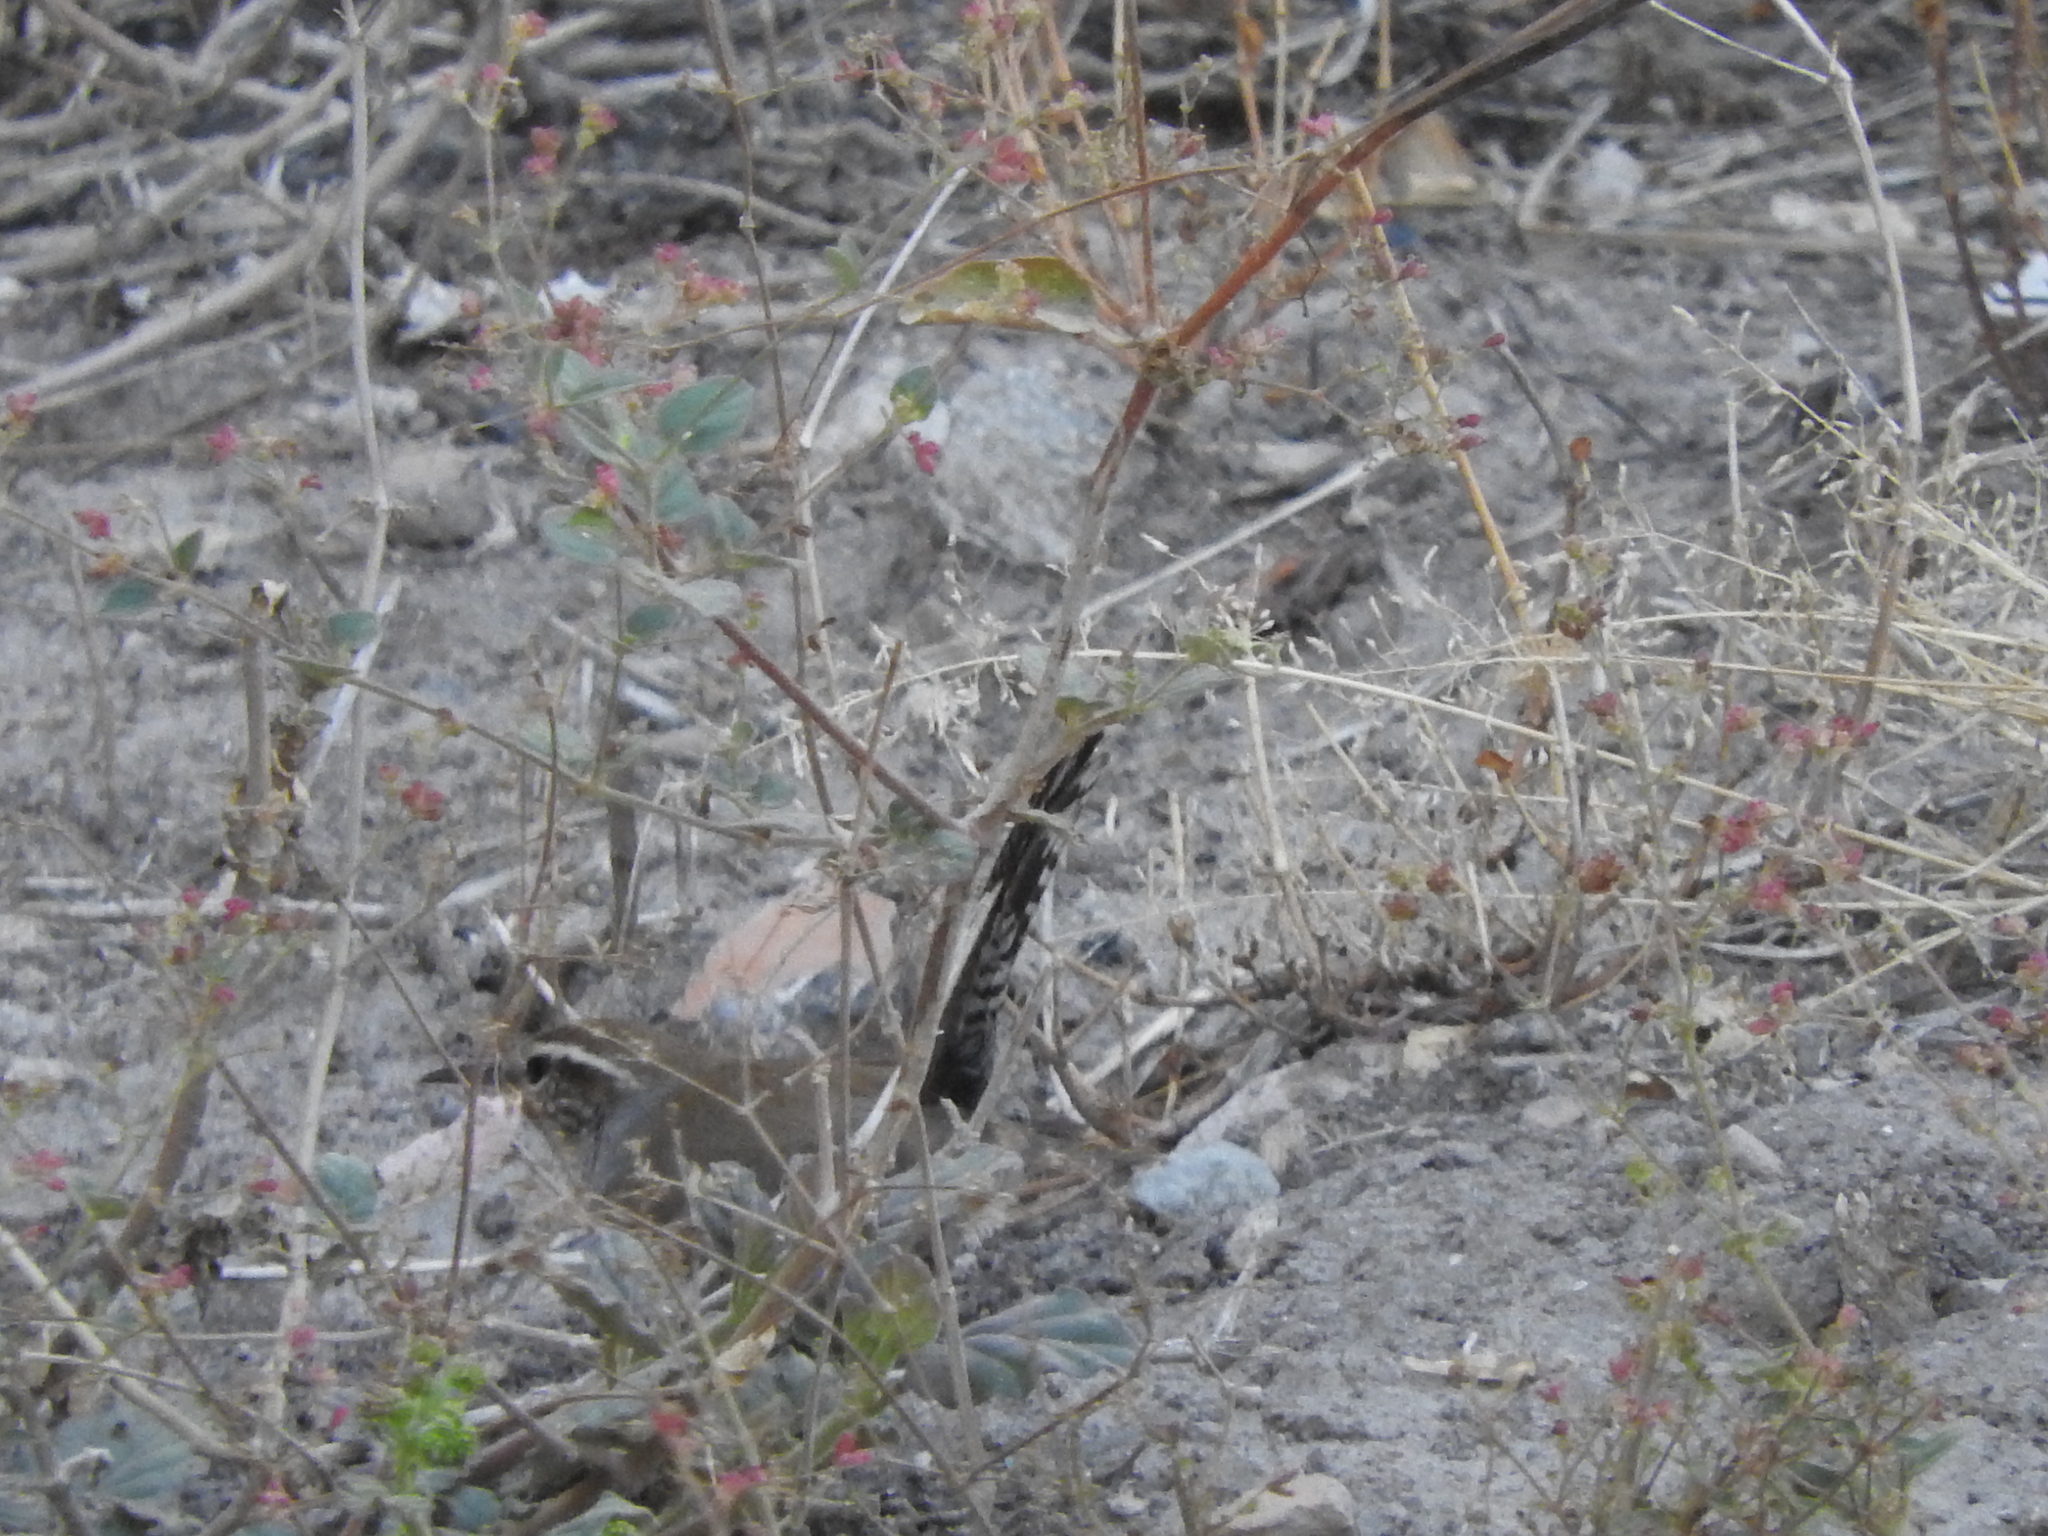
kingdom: Animalia
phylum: Chordata
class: Aves
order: Passeriformes
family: Troglodytidae
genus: Thryomanes
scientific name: Thryomanes bewickii
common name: Bewick's wren
